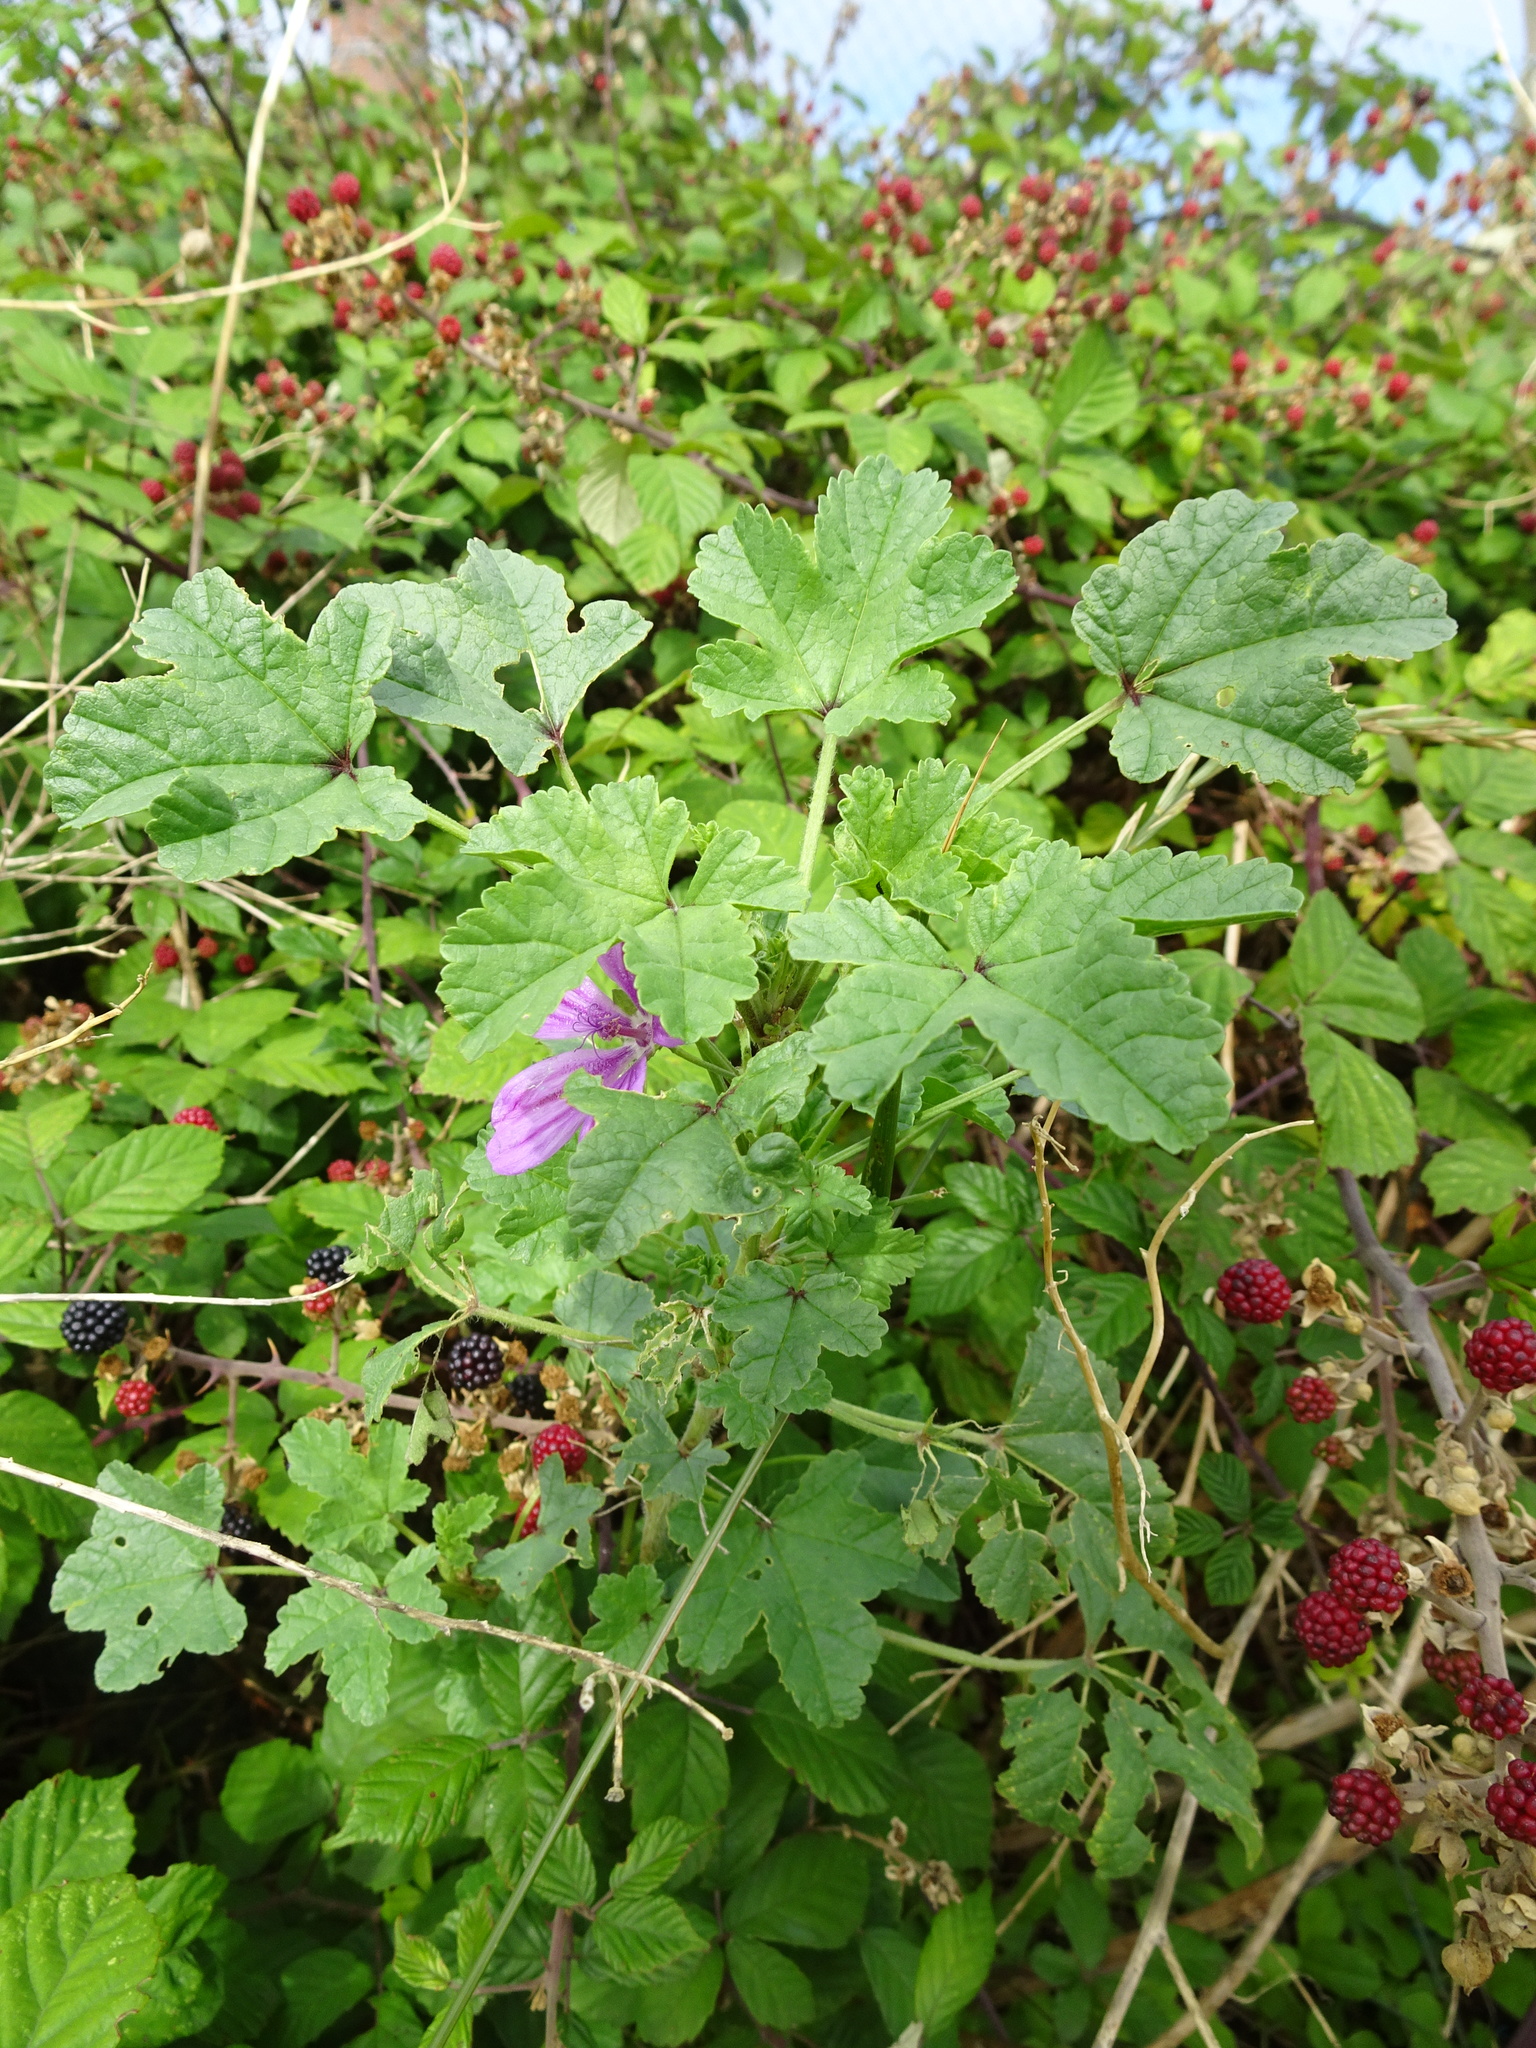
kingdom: Plantae
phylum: Tracheophyta
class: Magnoliopsida
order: Malvales
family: Malvaceae
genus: Malva
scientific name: Malva sylvestris
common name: Common mallow
